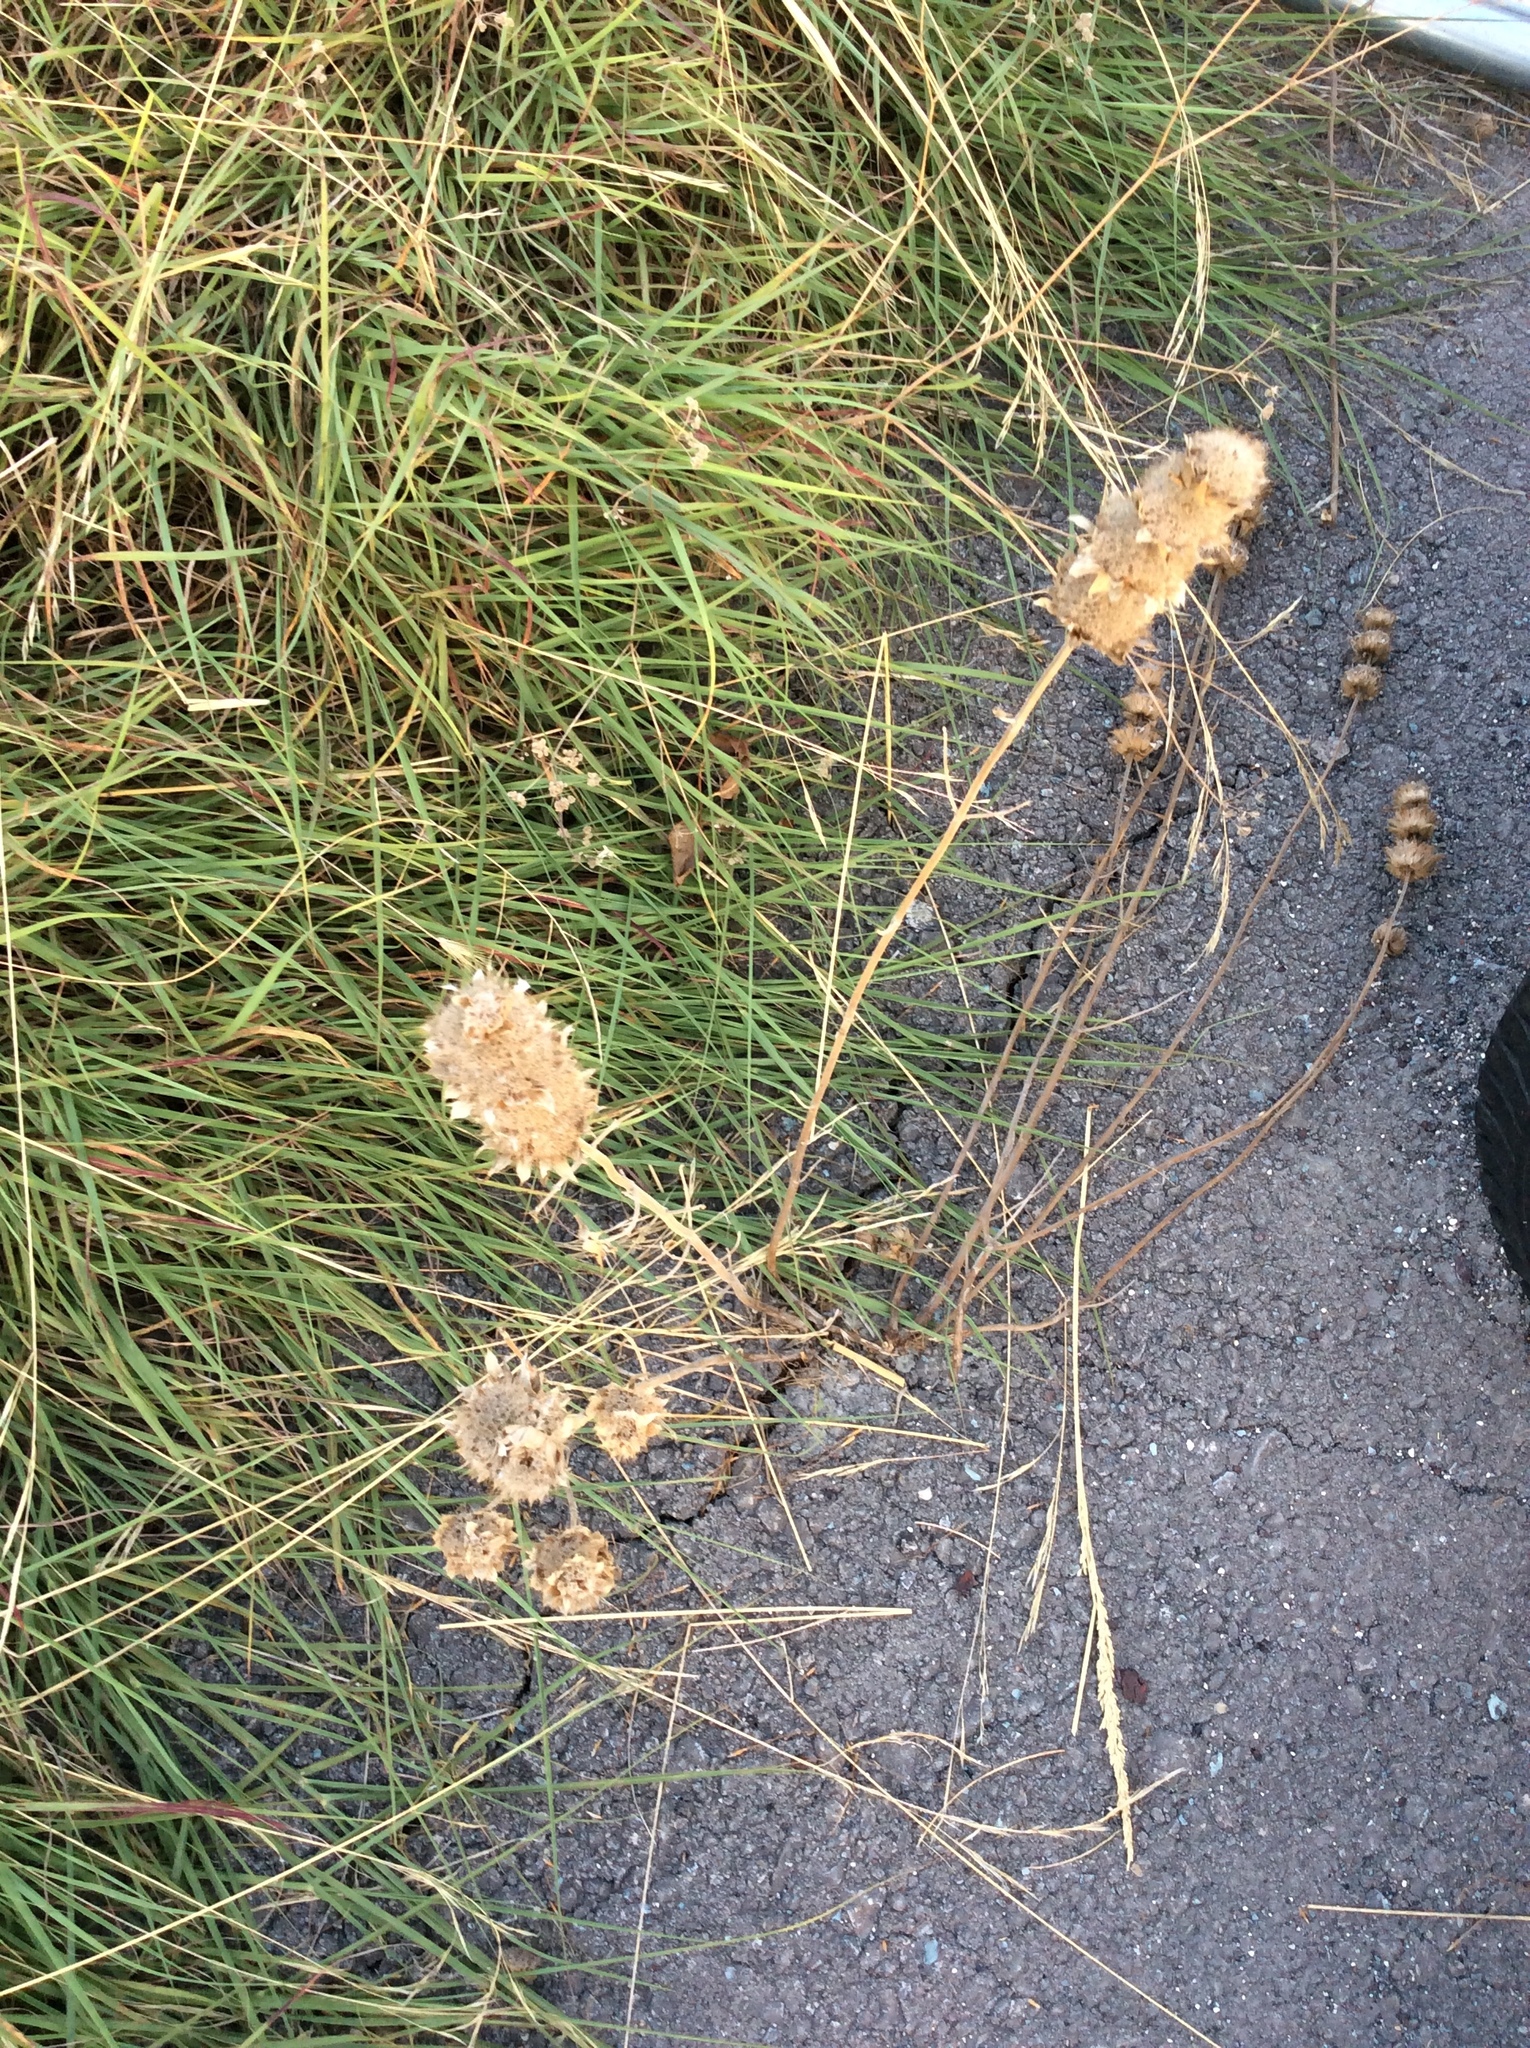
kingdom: Plantae
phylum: Tracheophyta
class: Magnoliopsida
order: Lamiales
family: Lamiaceae
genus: Monarda
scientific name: Monarda citriodora
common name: Lemon beebalm
